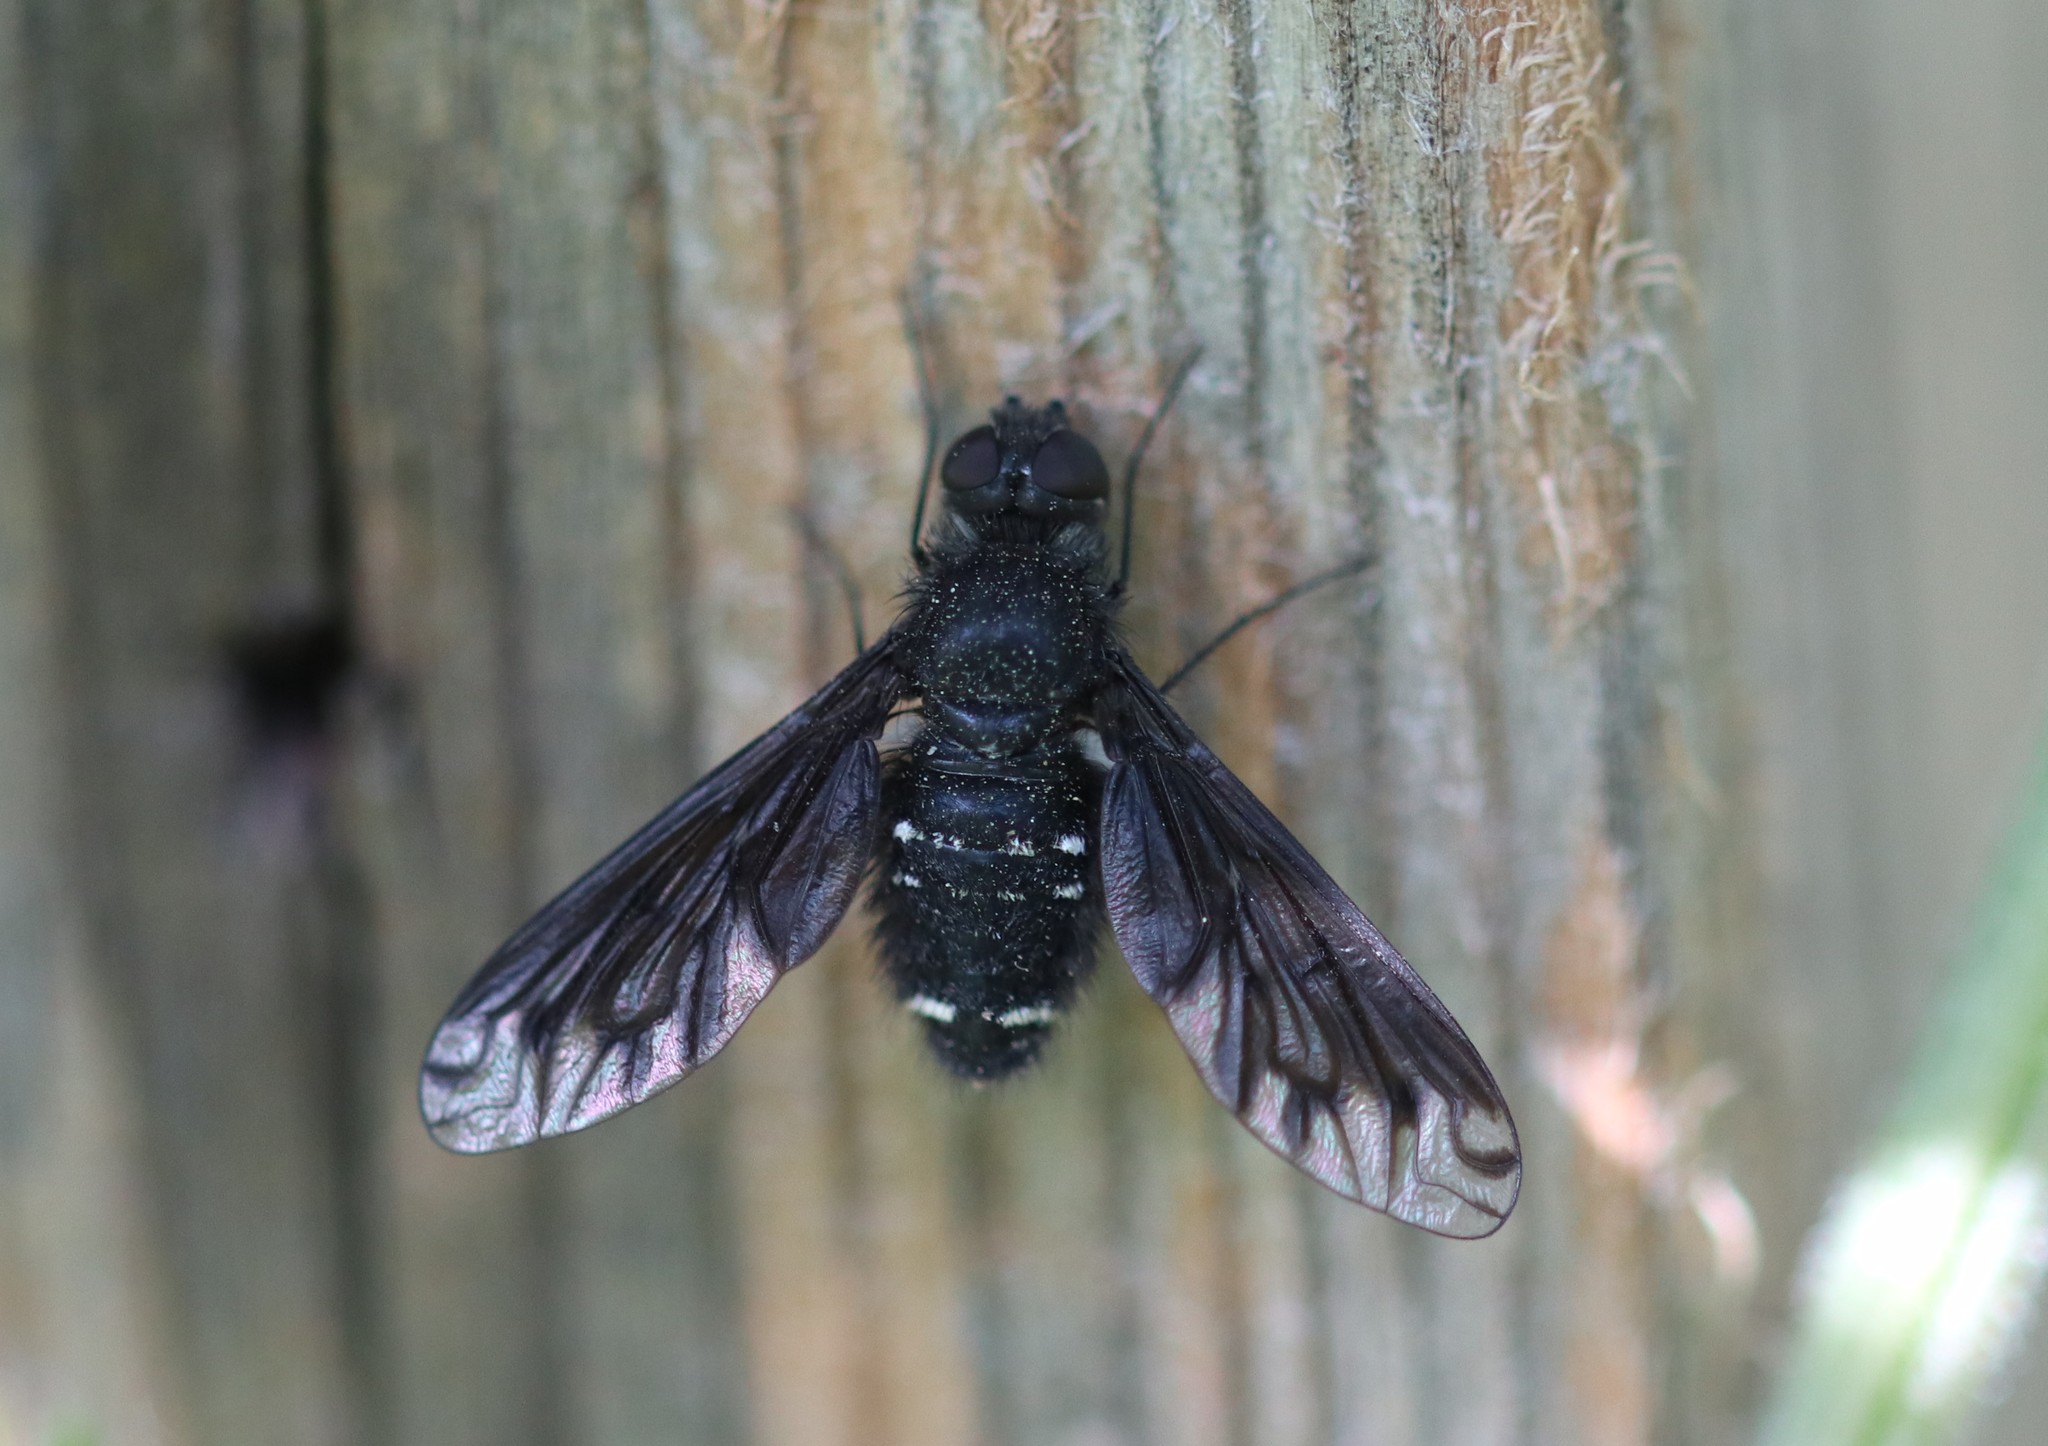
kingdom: Animalia
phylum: Arthropoda
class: Insecta
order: Diptera
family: Bombyliidae
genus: Anthrax
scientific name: Anthrax anthrax
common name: Anthracite bee-fly
